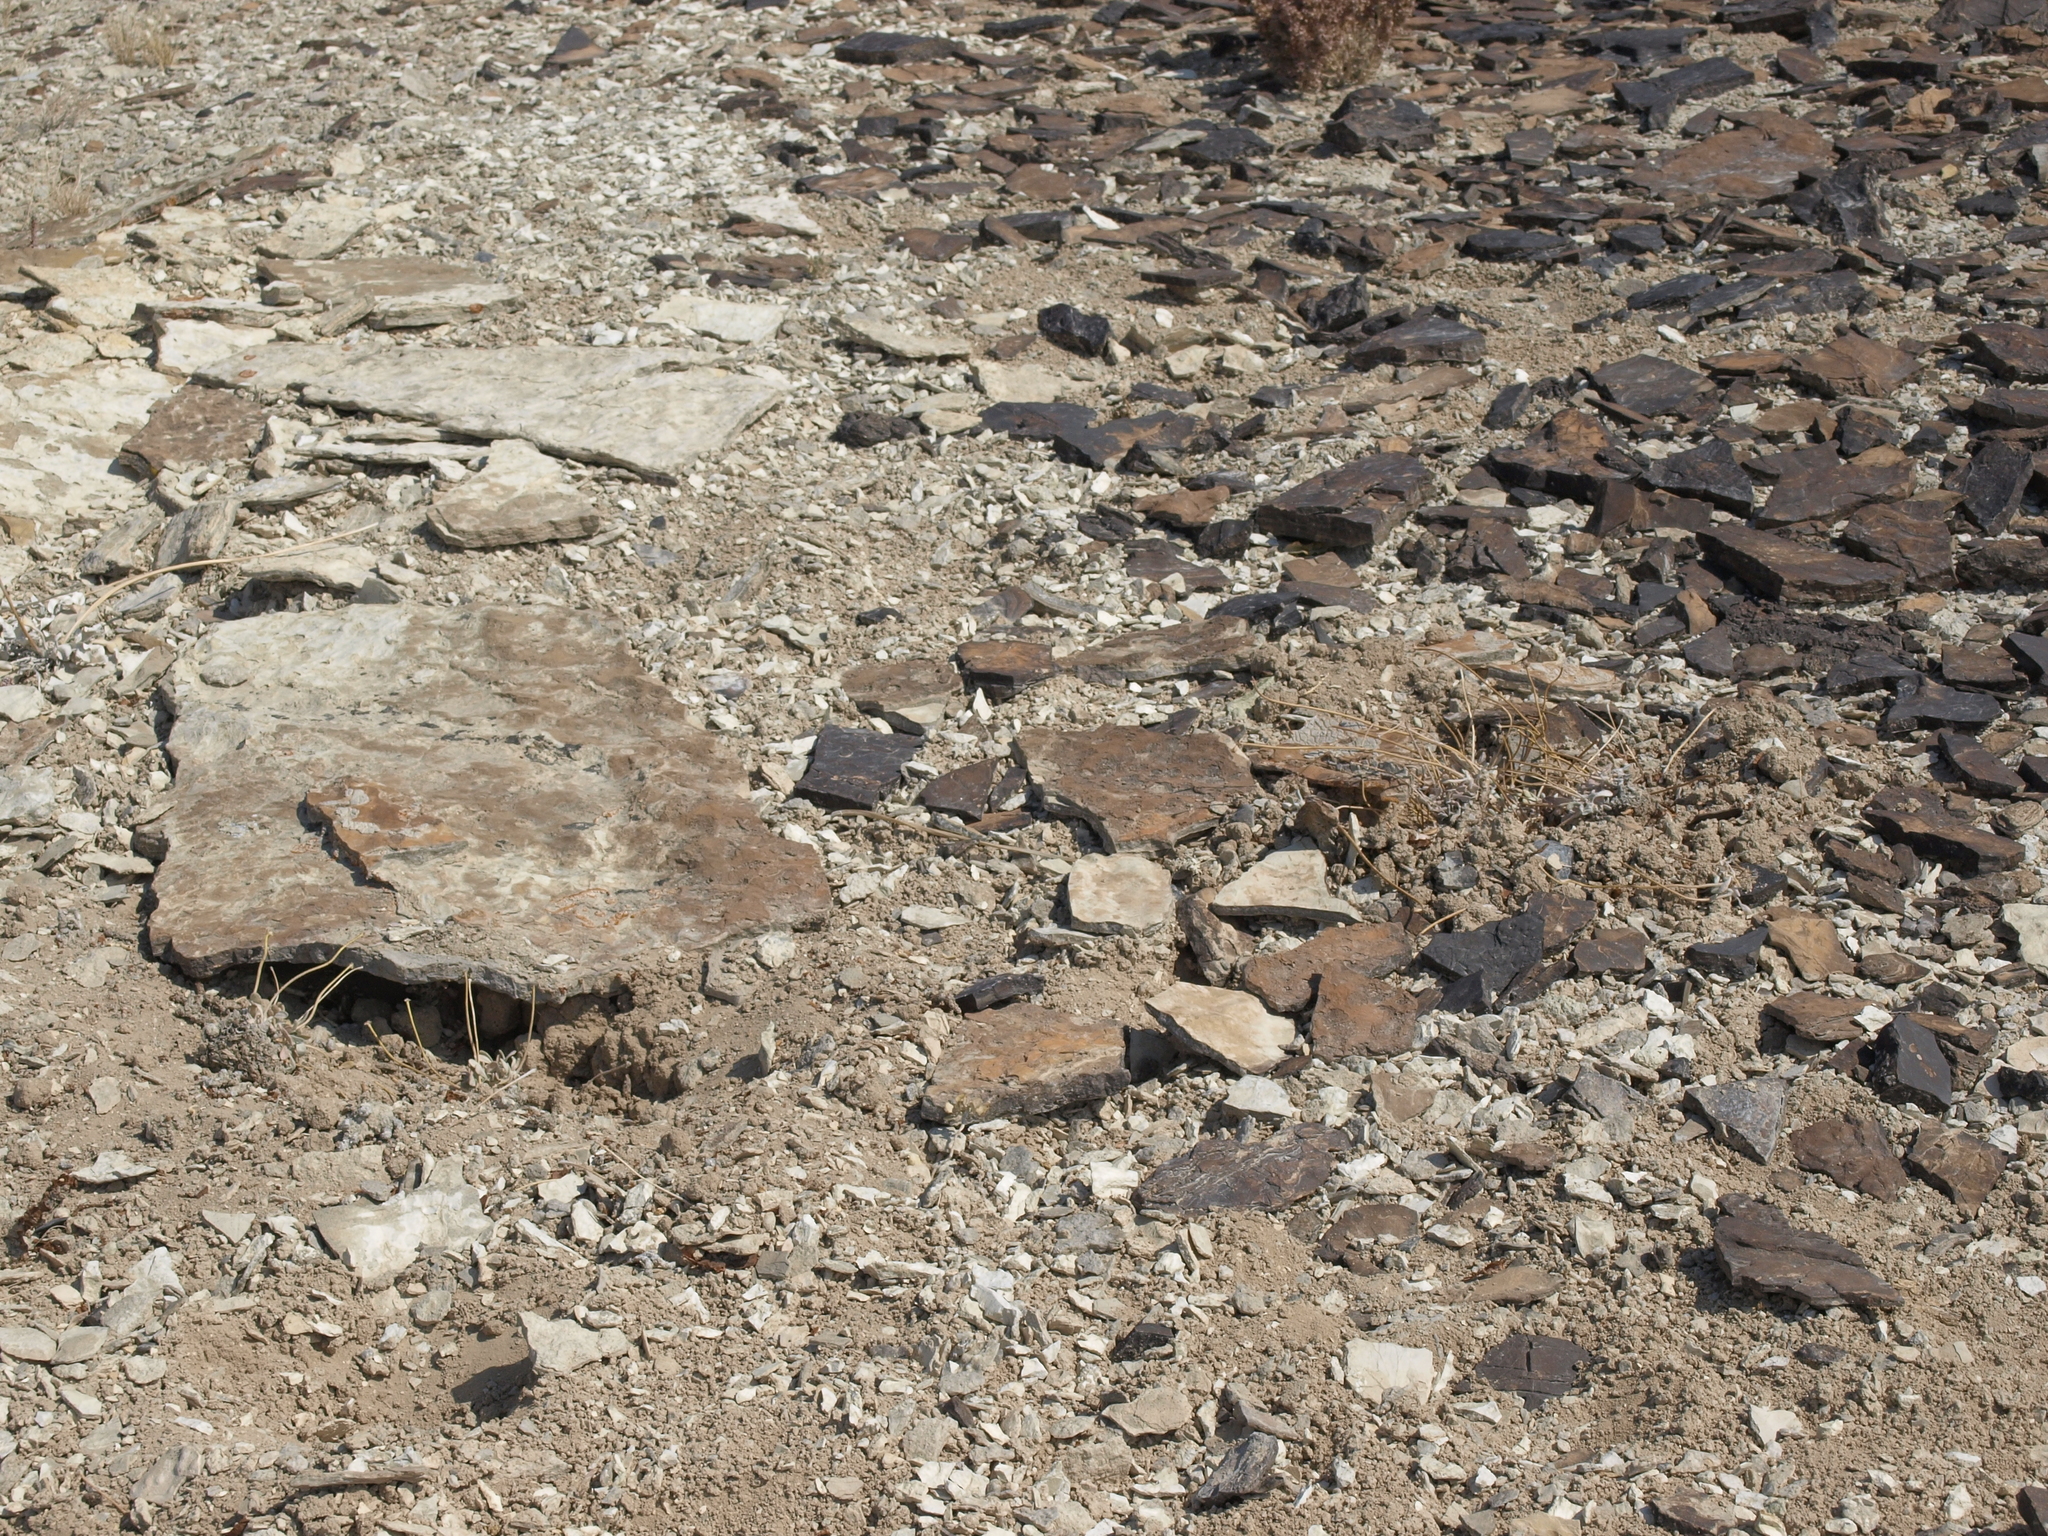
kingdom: Plantae
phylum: Tracheophyta
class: Magnoliopsida
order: Caryophyllales
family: Polygonaceae
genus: Eriogonum
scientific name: Eriogonum tiehmii
